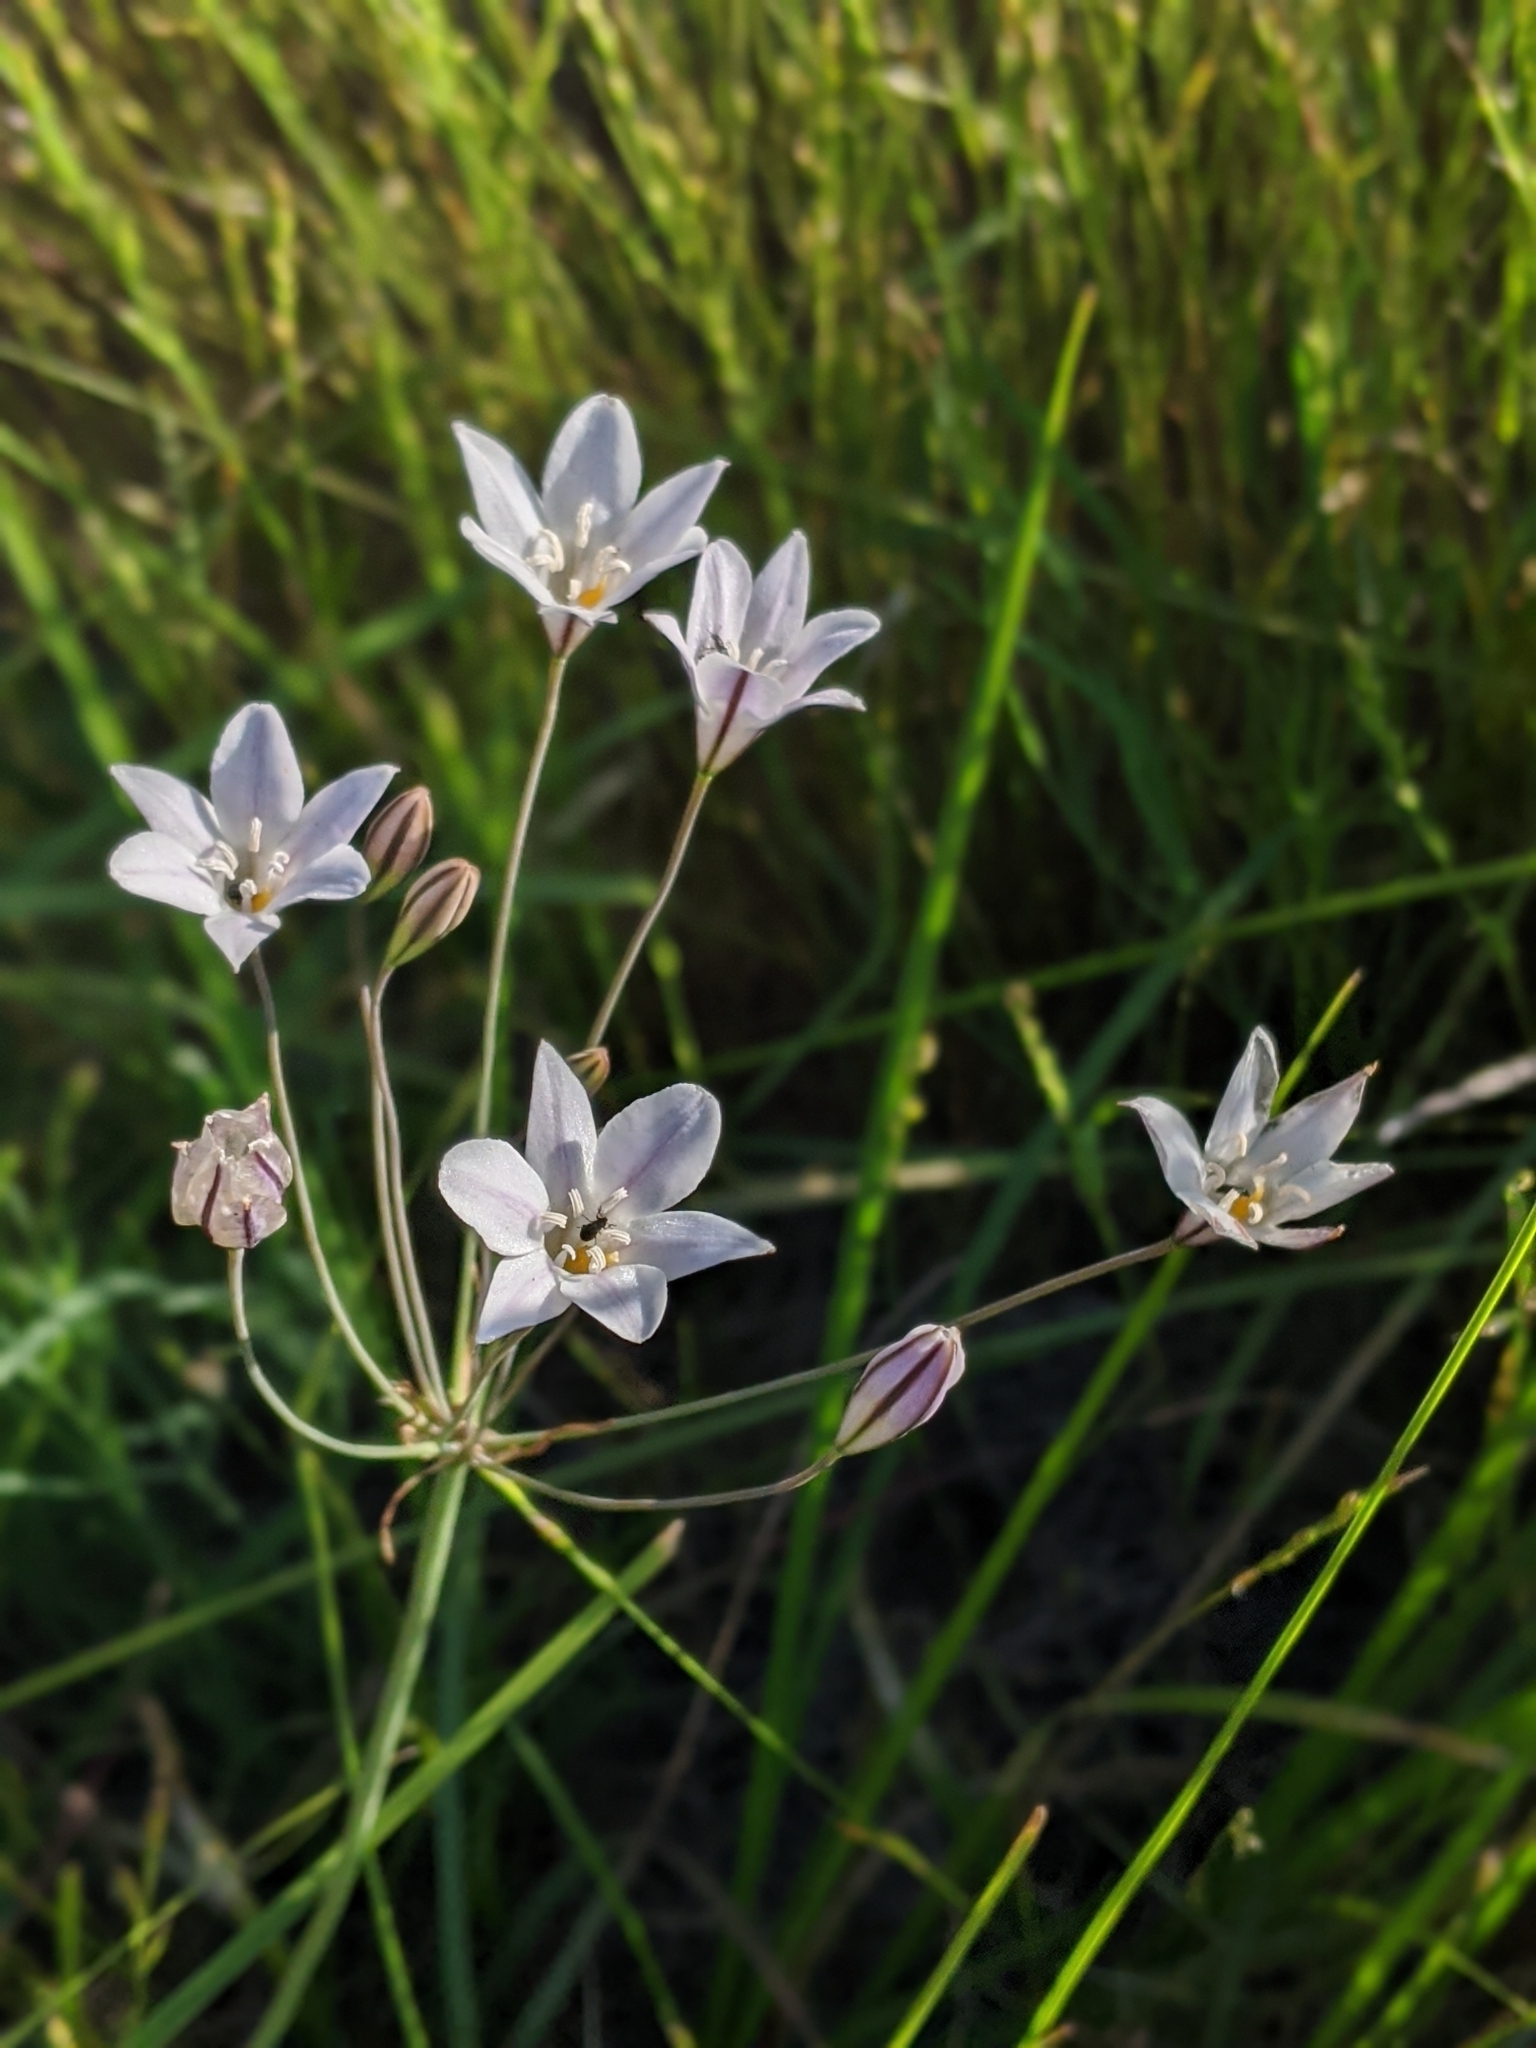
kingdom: Plantae
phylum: Tracheophyta
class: Liliopsida
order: Asparagales
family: Asparagaceae
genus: Triteleia
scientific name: Triteleia peduncularis
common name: Long-ray brodiaea
